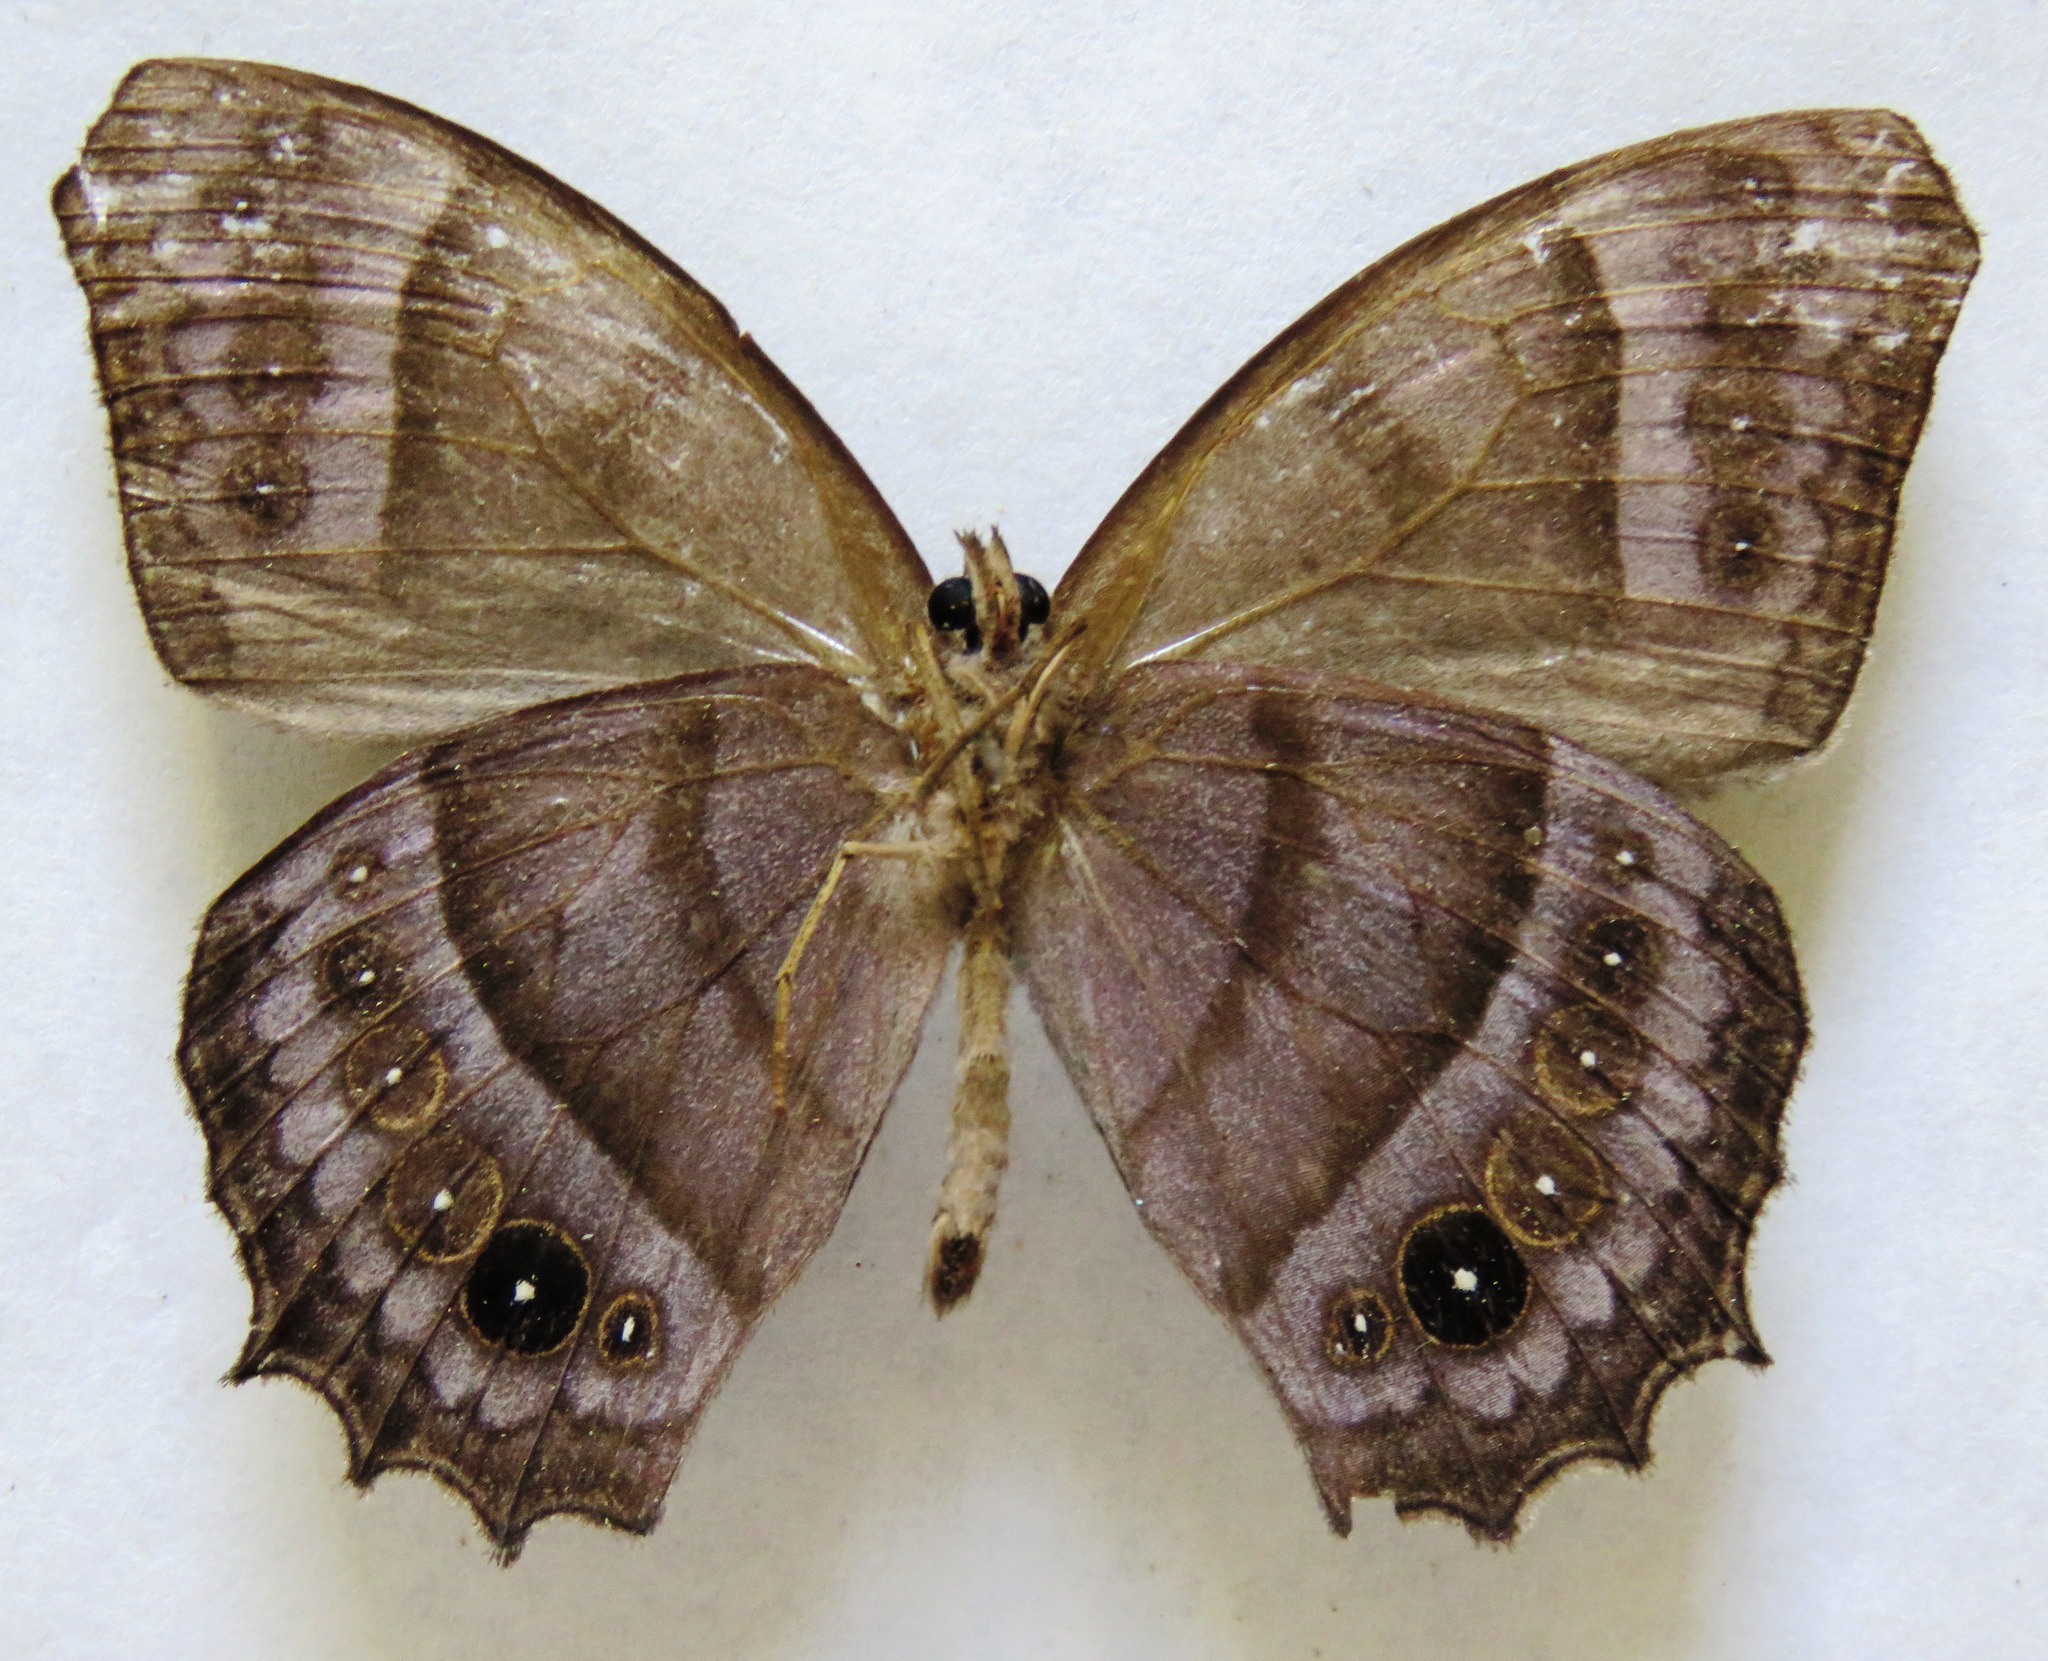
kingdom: Animalia
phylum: Arthropoda
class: Insecta
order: Lepidoptera
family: Nymphalidae
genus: Taygetis
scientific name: Taygetis inconspicua
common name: Inconspicuous satyr
